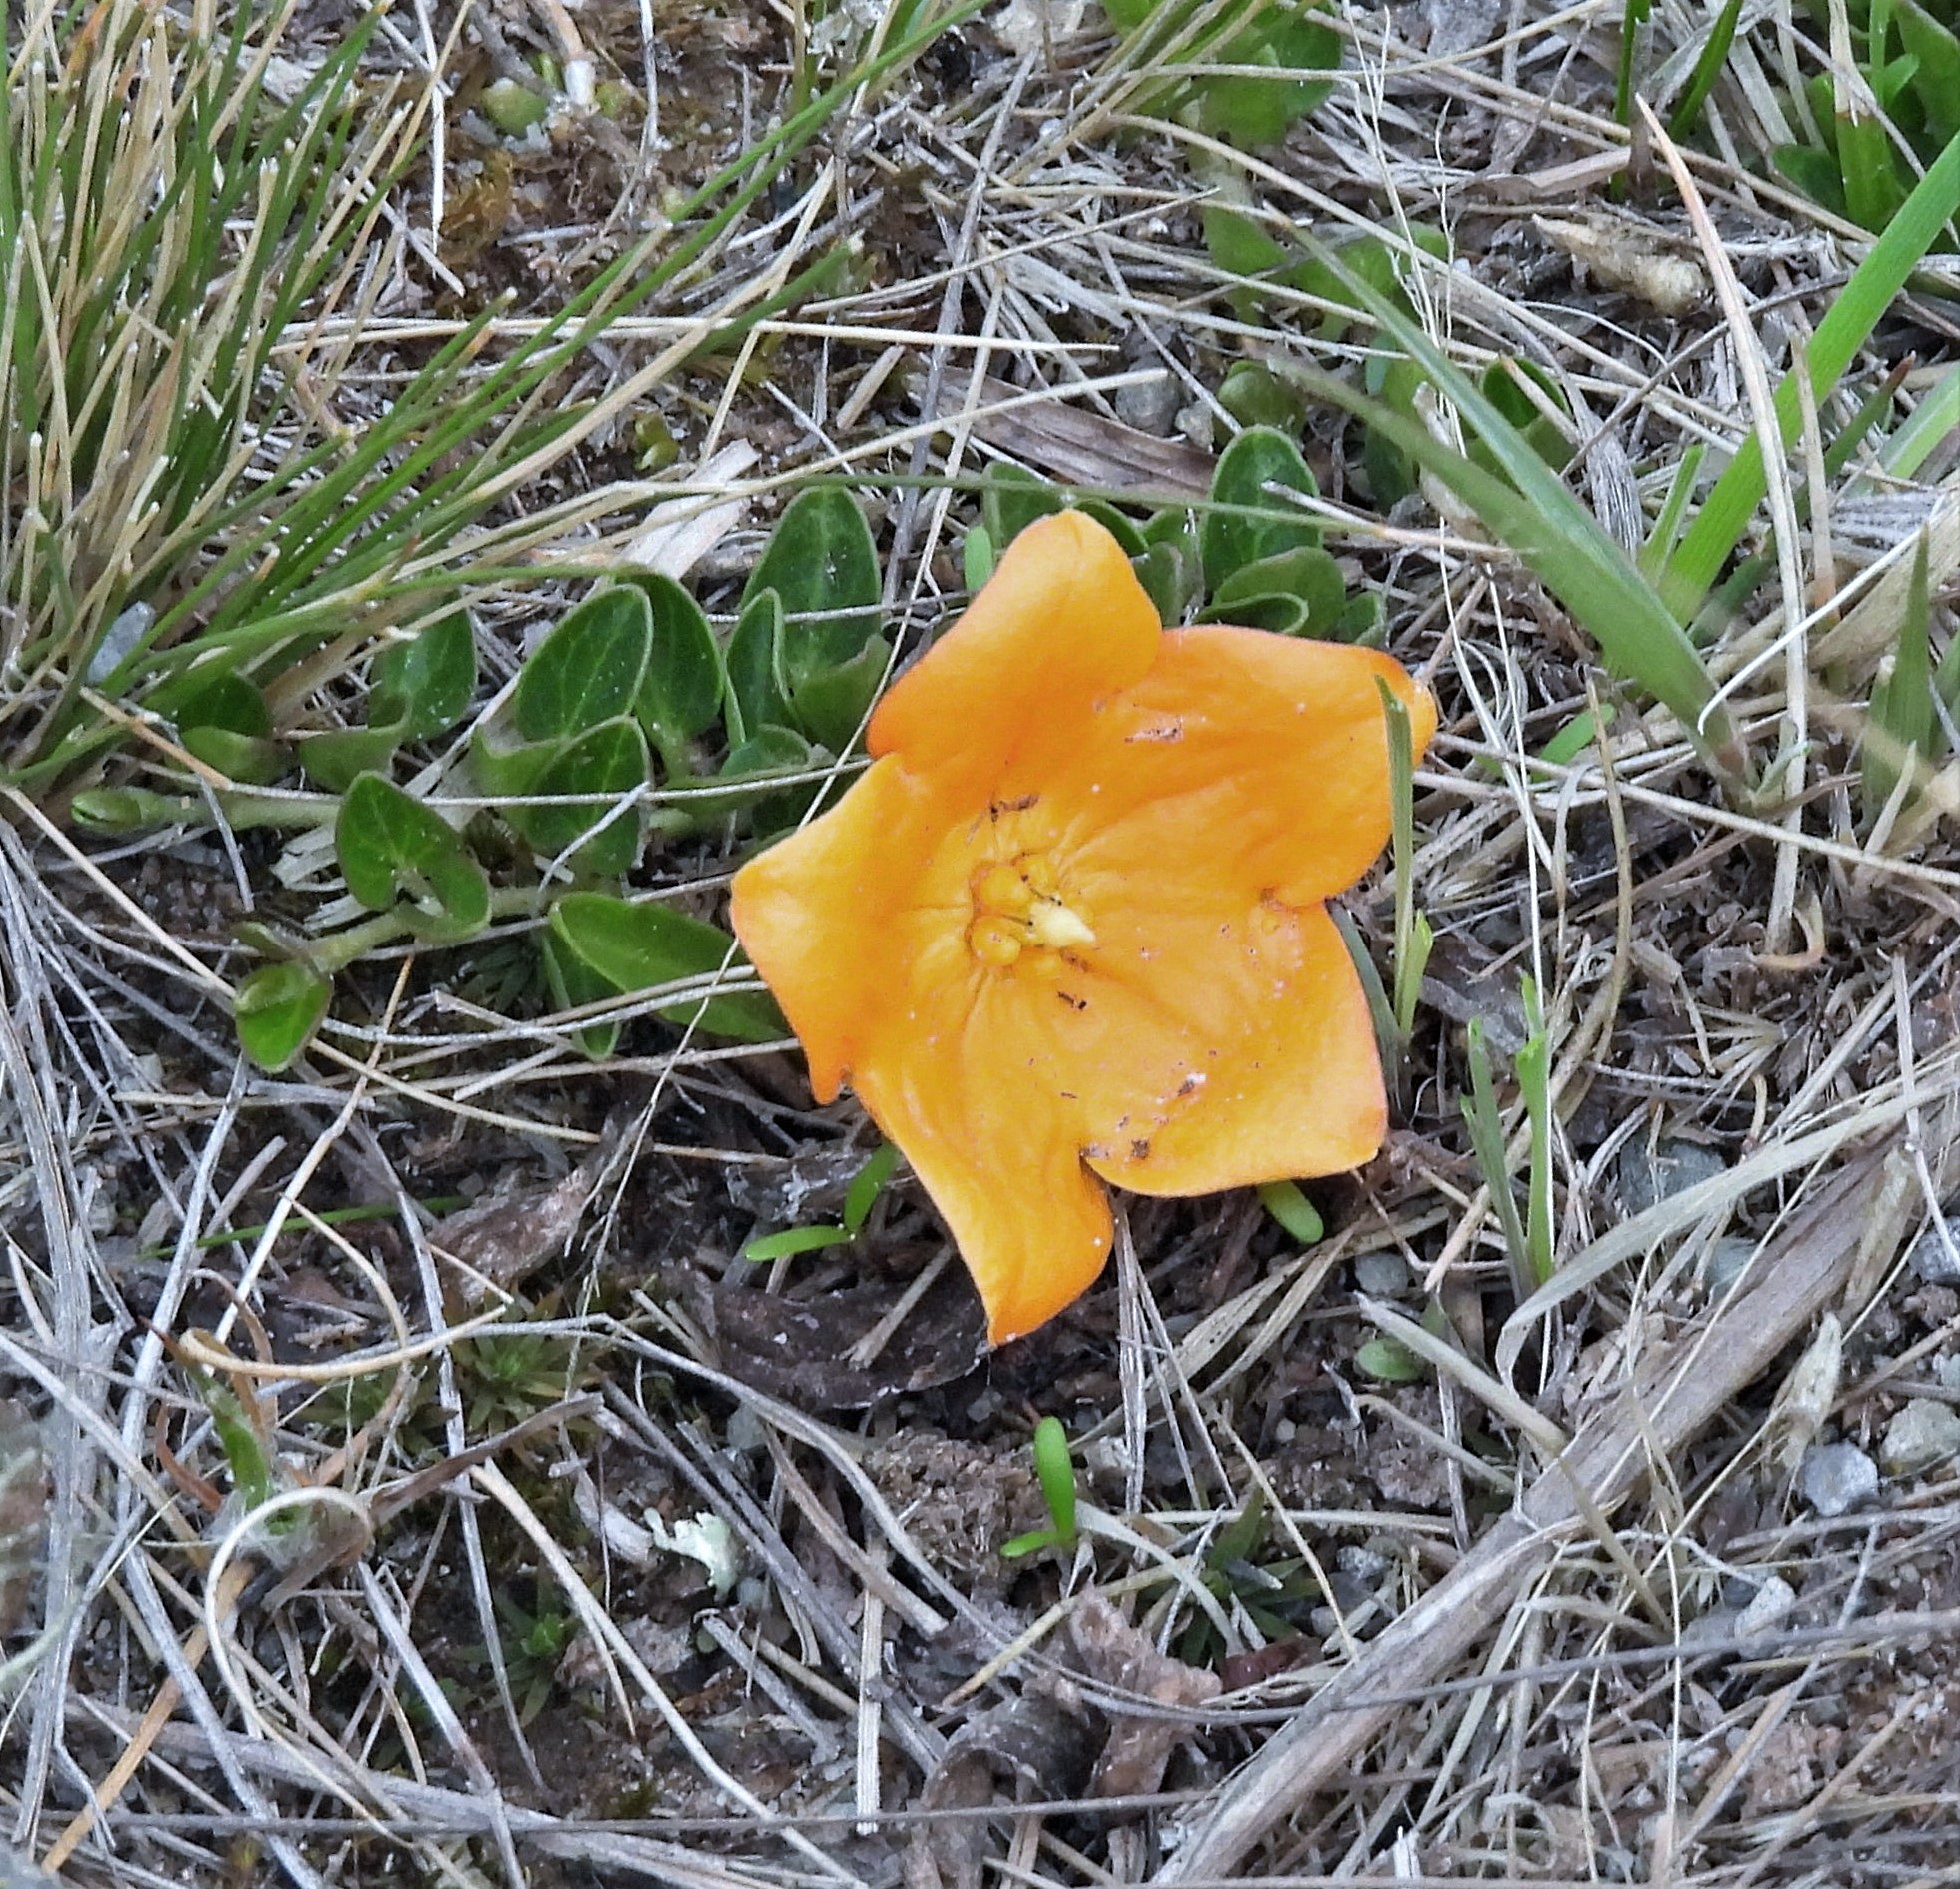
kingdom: Plantae
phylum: Tracheophyta
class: Magnoliopsida
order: Gentianales
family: Apocynaceae
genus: Philibertia
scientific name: Philibertia lysimachioides
